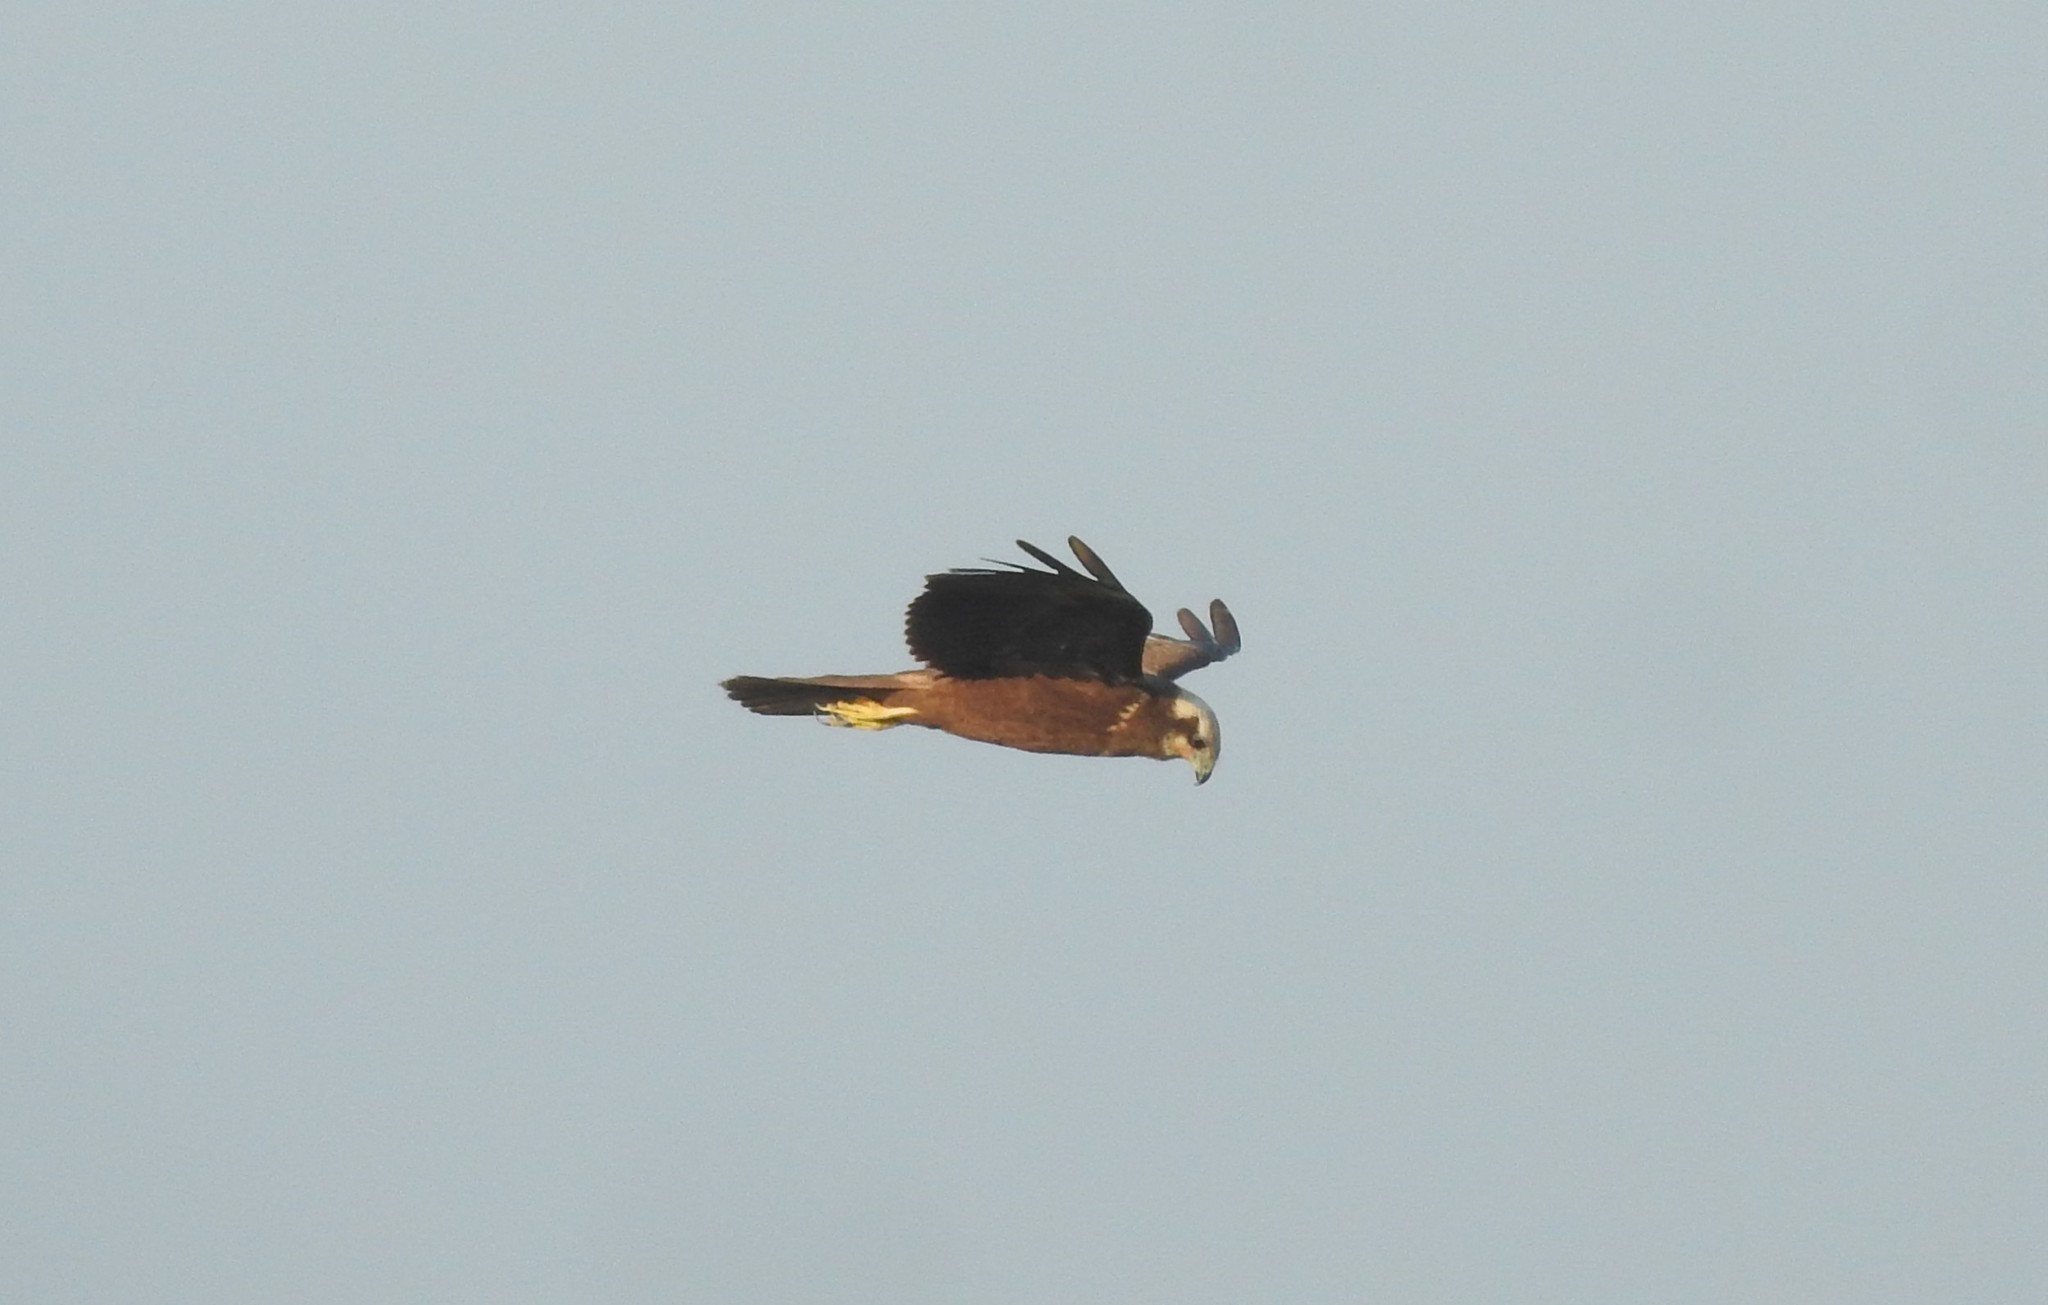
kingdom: Animalia
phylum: Chordata
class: Aves
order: Accipitriformes
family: Accipitridae
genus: Circus
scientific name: Circus aeruginosus
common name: Western marsh harrier
